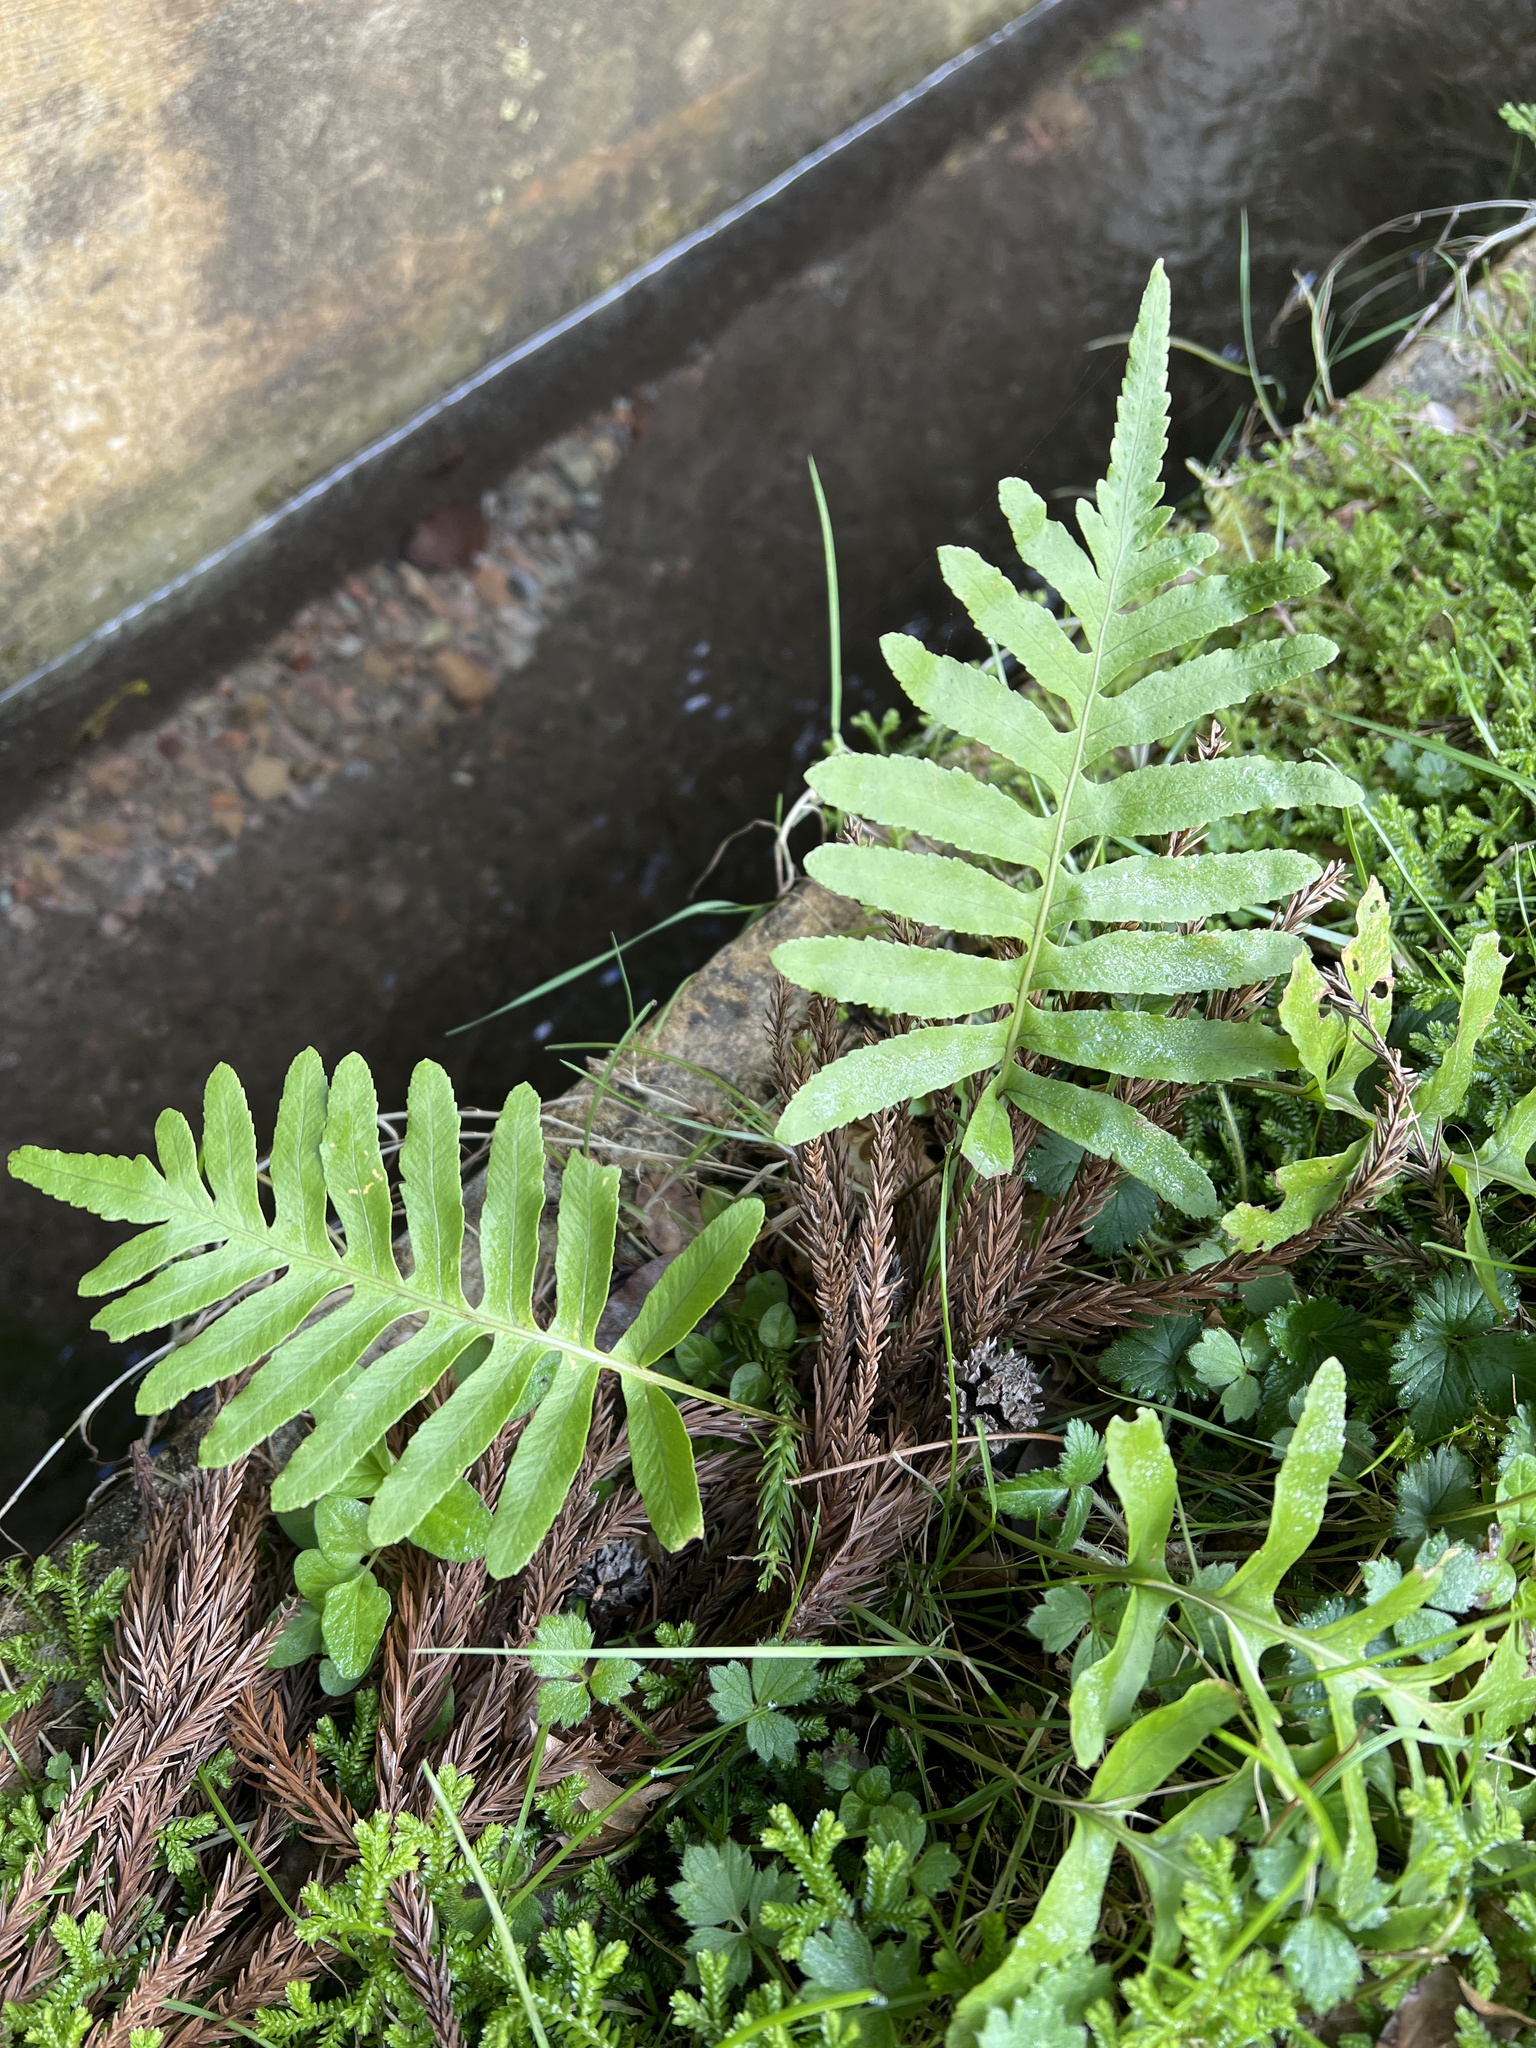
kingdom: Plantae
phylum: Tracheophyta
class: Polypodiopsida
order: Polypodiales
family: Polypodiaceae
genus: Polypodium
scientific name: Polypodium macaronesicum
